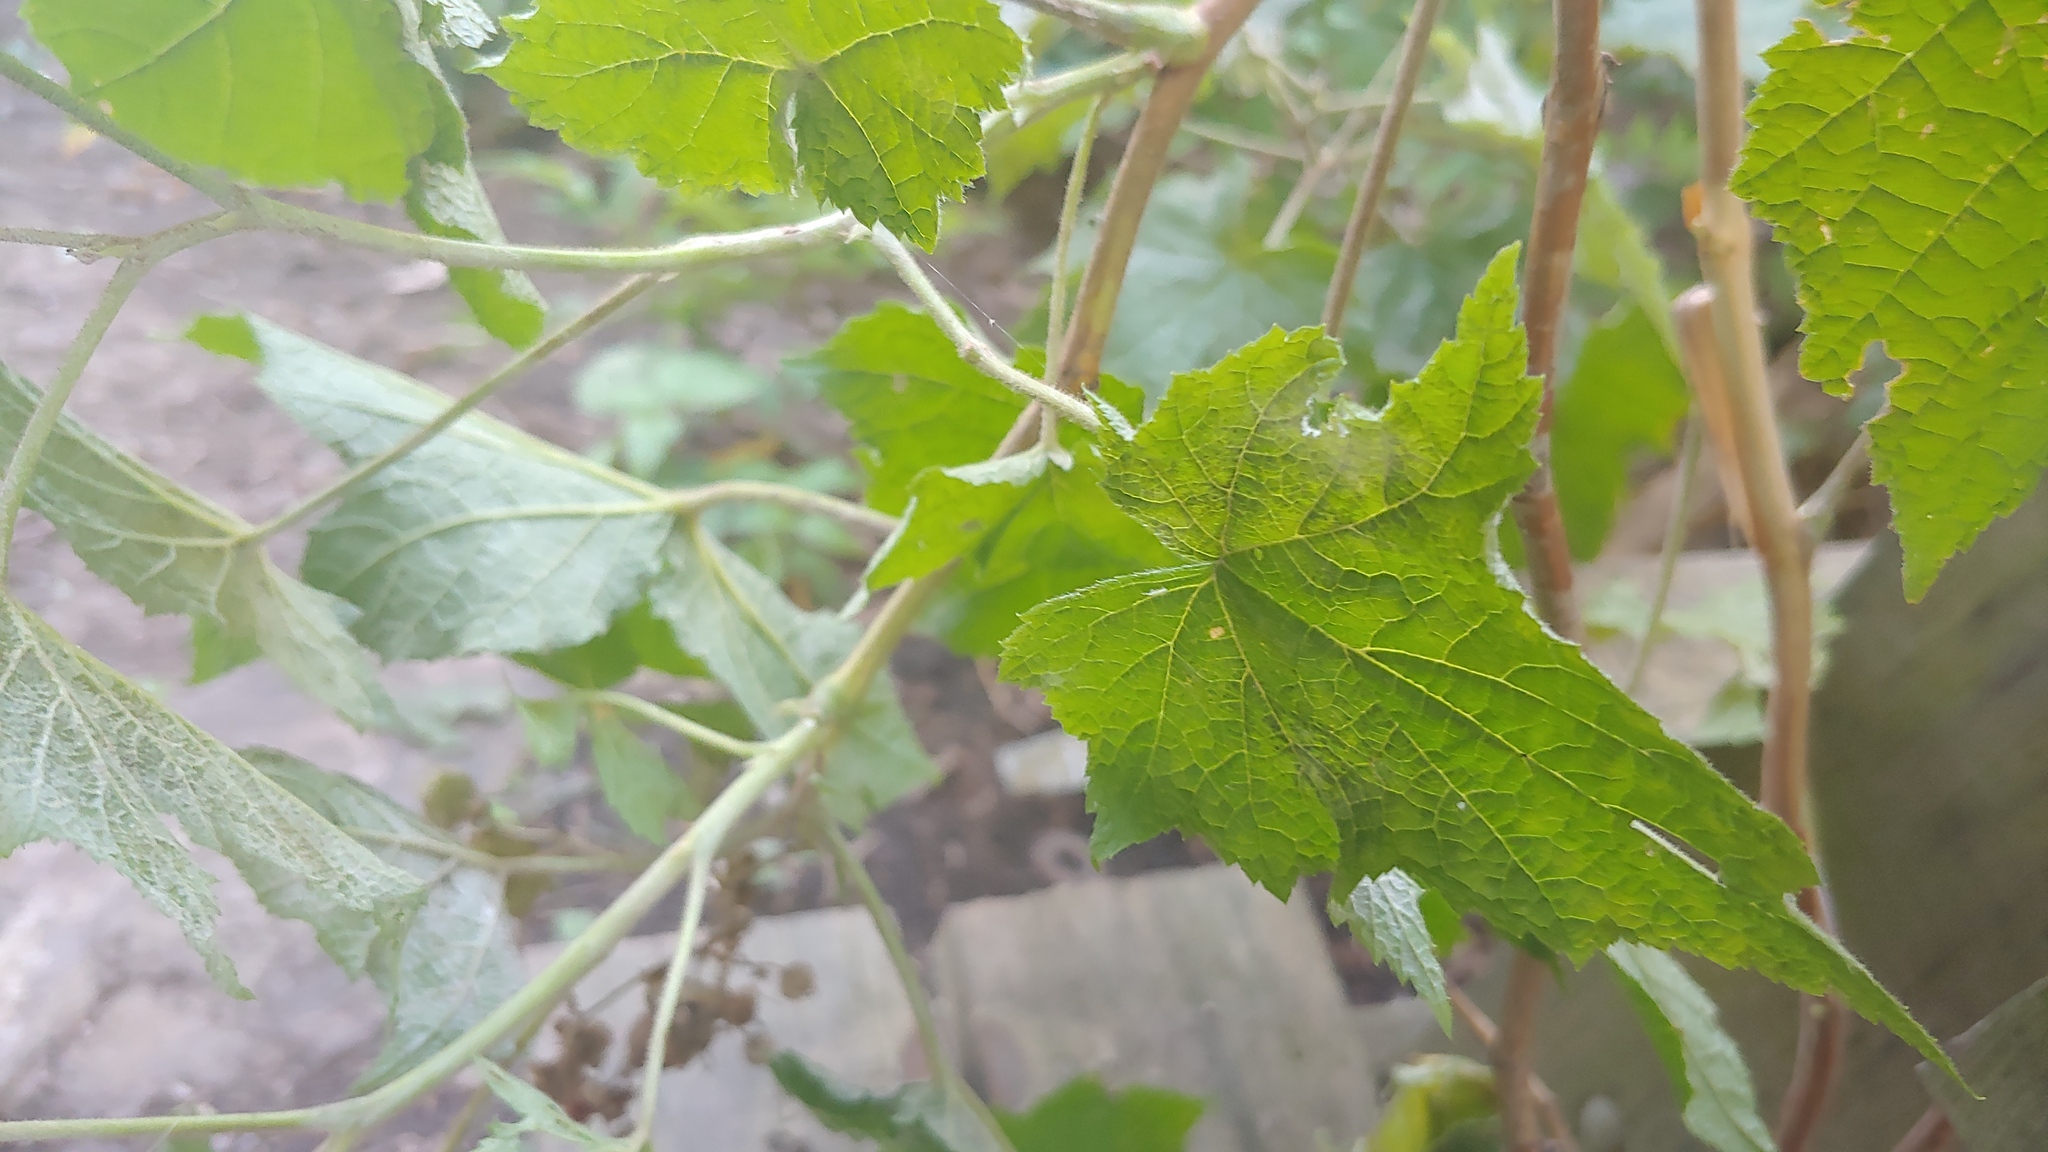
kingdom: Plantae
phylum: Tracheophyta
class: Magnoliopsida
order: Rosales
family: Rosaceae
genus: Rubus
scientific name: Rubus odoratus
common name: Purple-flowered raspberry
